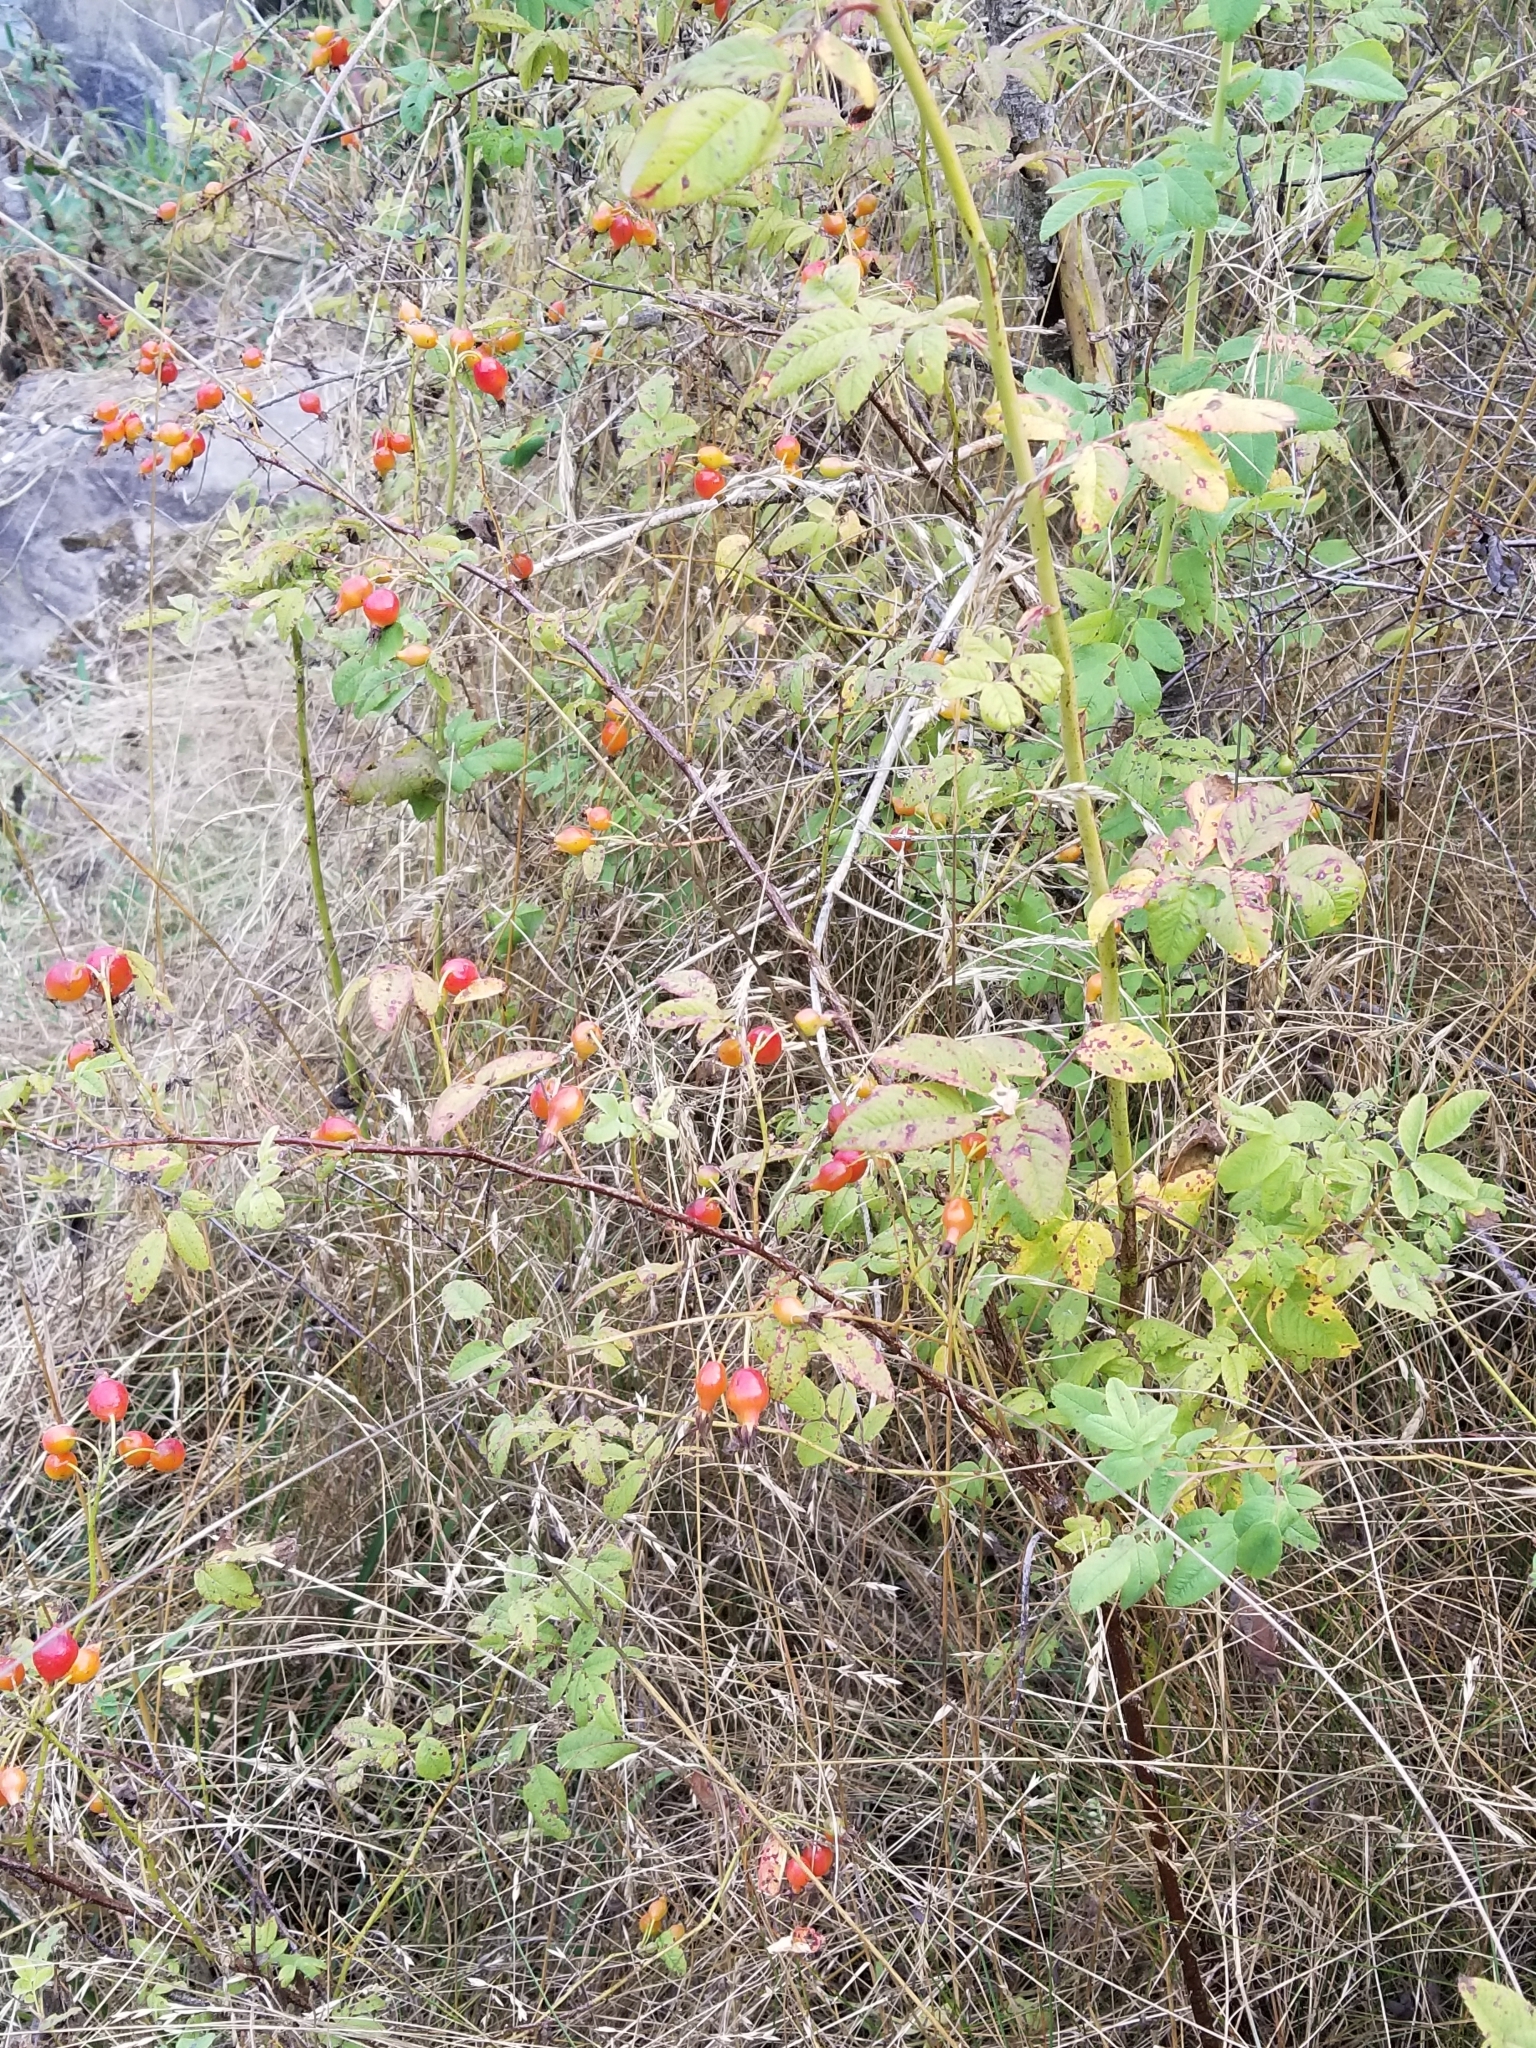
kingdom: Plantae
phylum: Tracheophyta
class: Magnoliopsida
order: Rosales
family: Rosaceae
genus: Rosa
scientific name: Rosa pisocarpa
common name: Cluster rose
